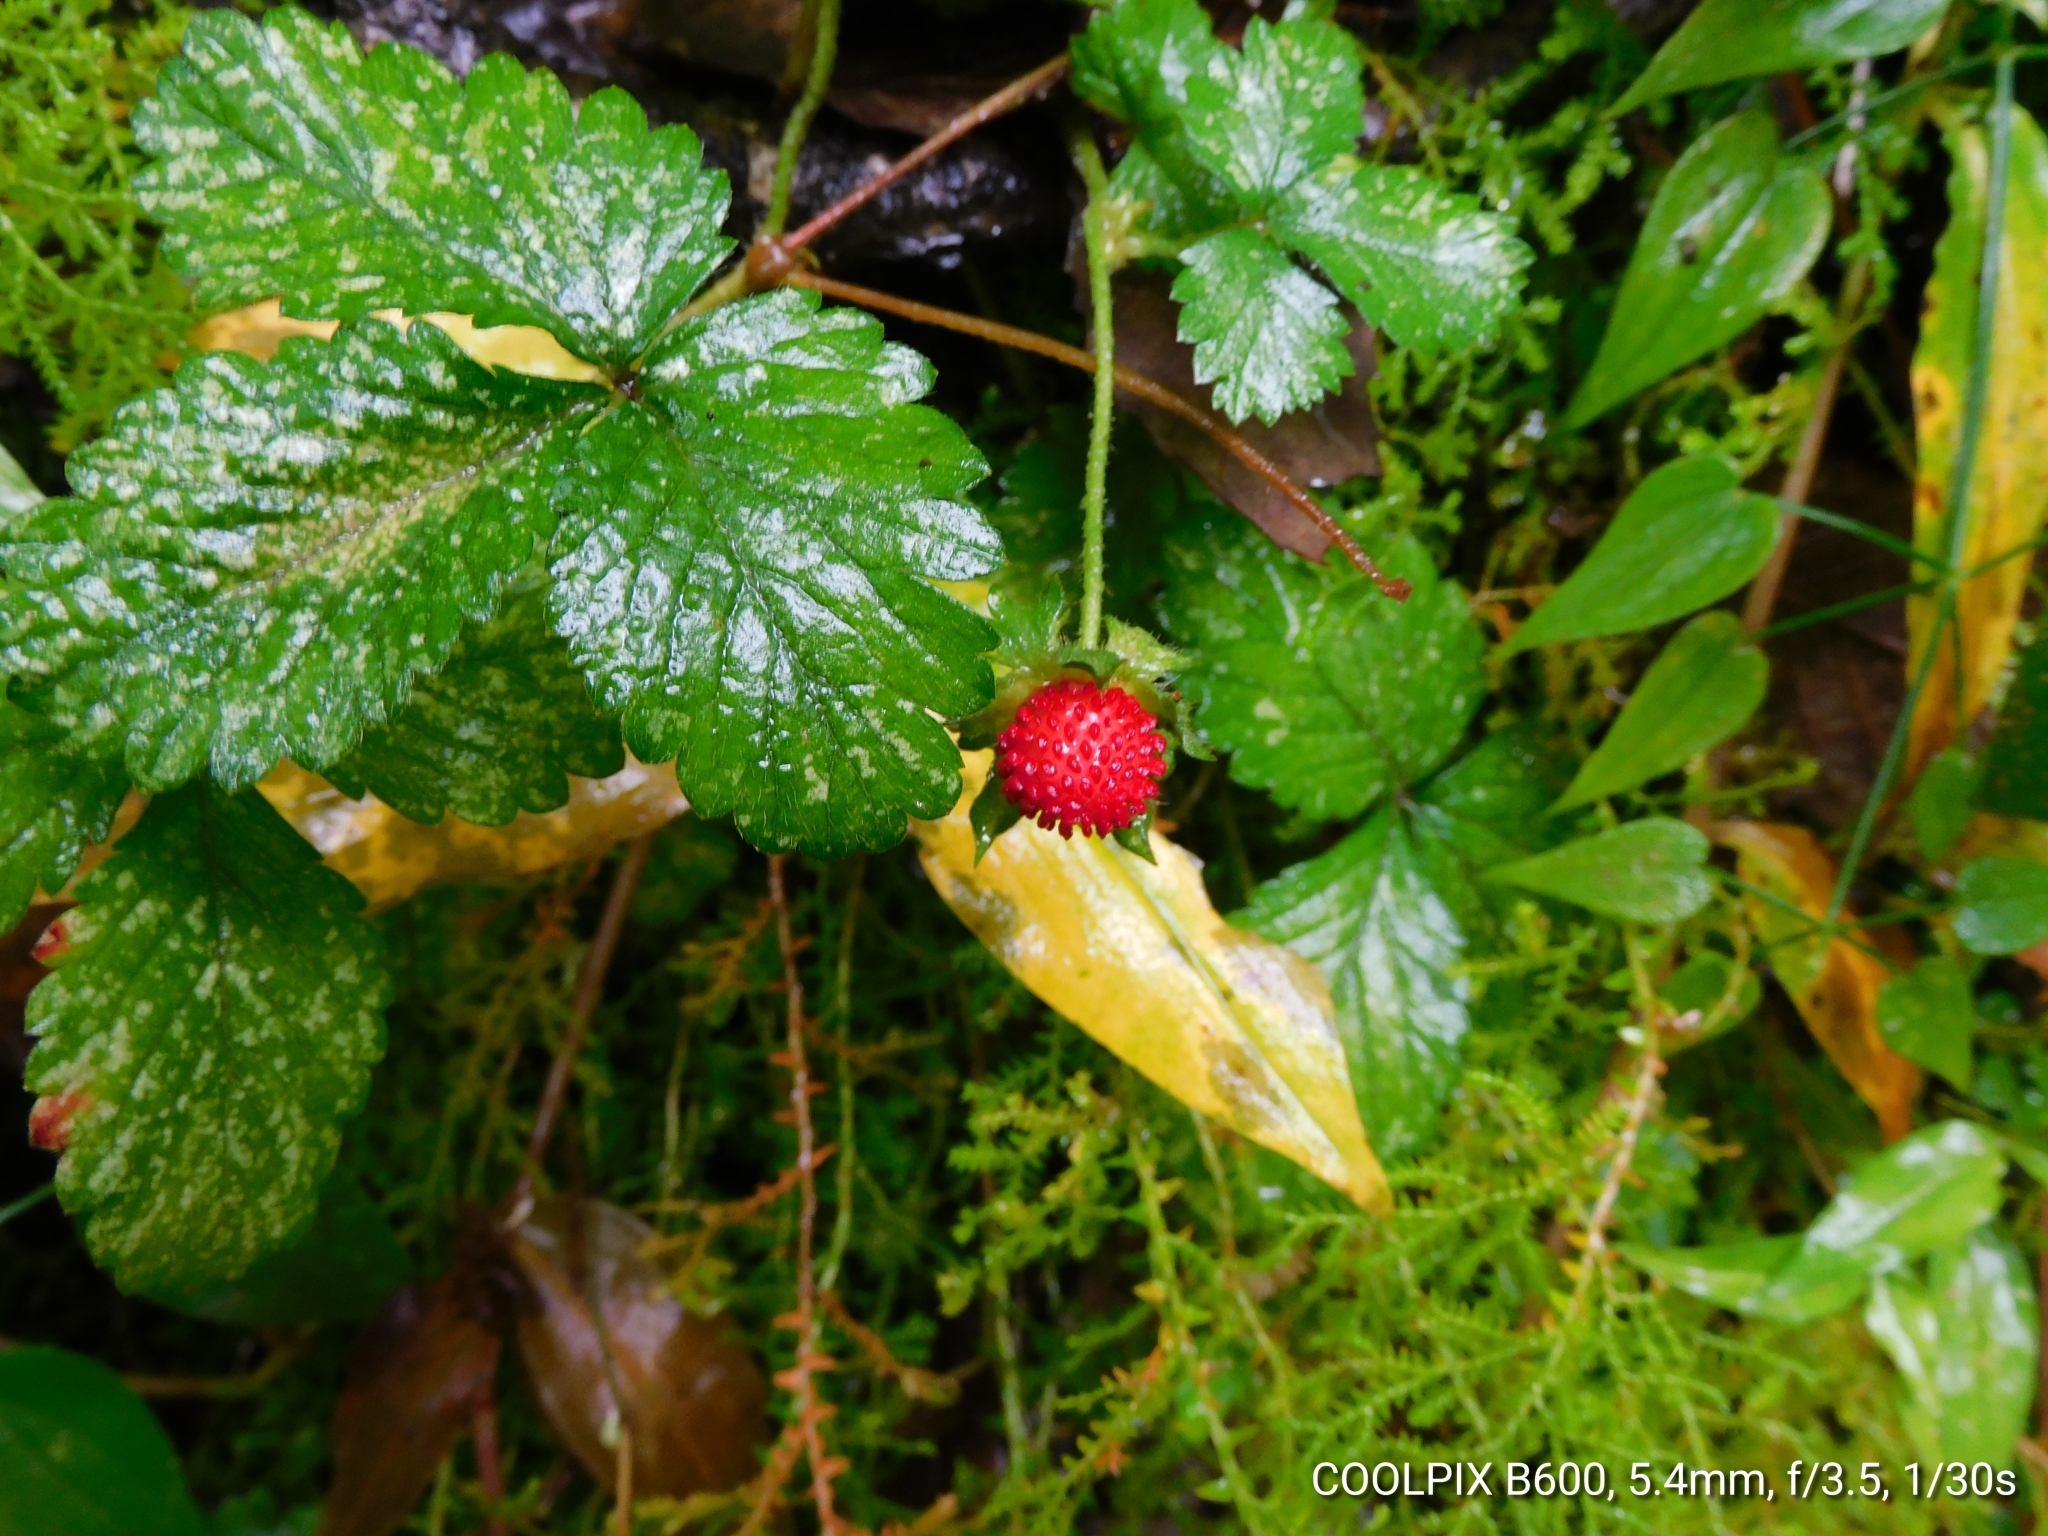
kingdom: Plantae
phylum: Tracheophyta
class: Magnoliopsida
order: Rosales
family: Rosaceae
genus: Potentilla
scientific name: Potentilla indica
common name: Yellow-flowered strawberry
